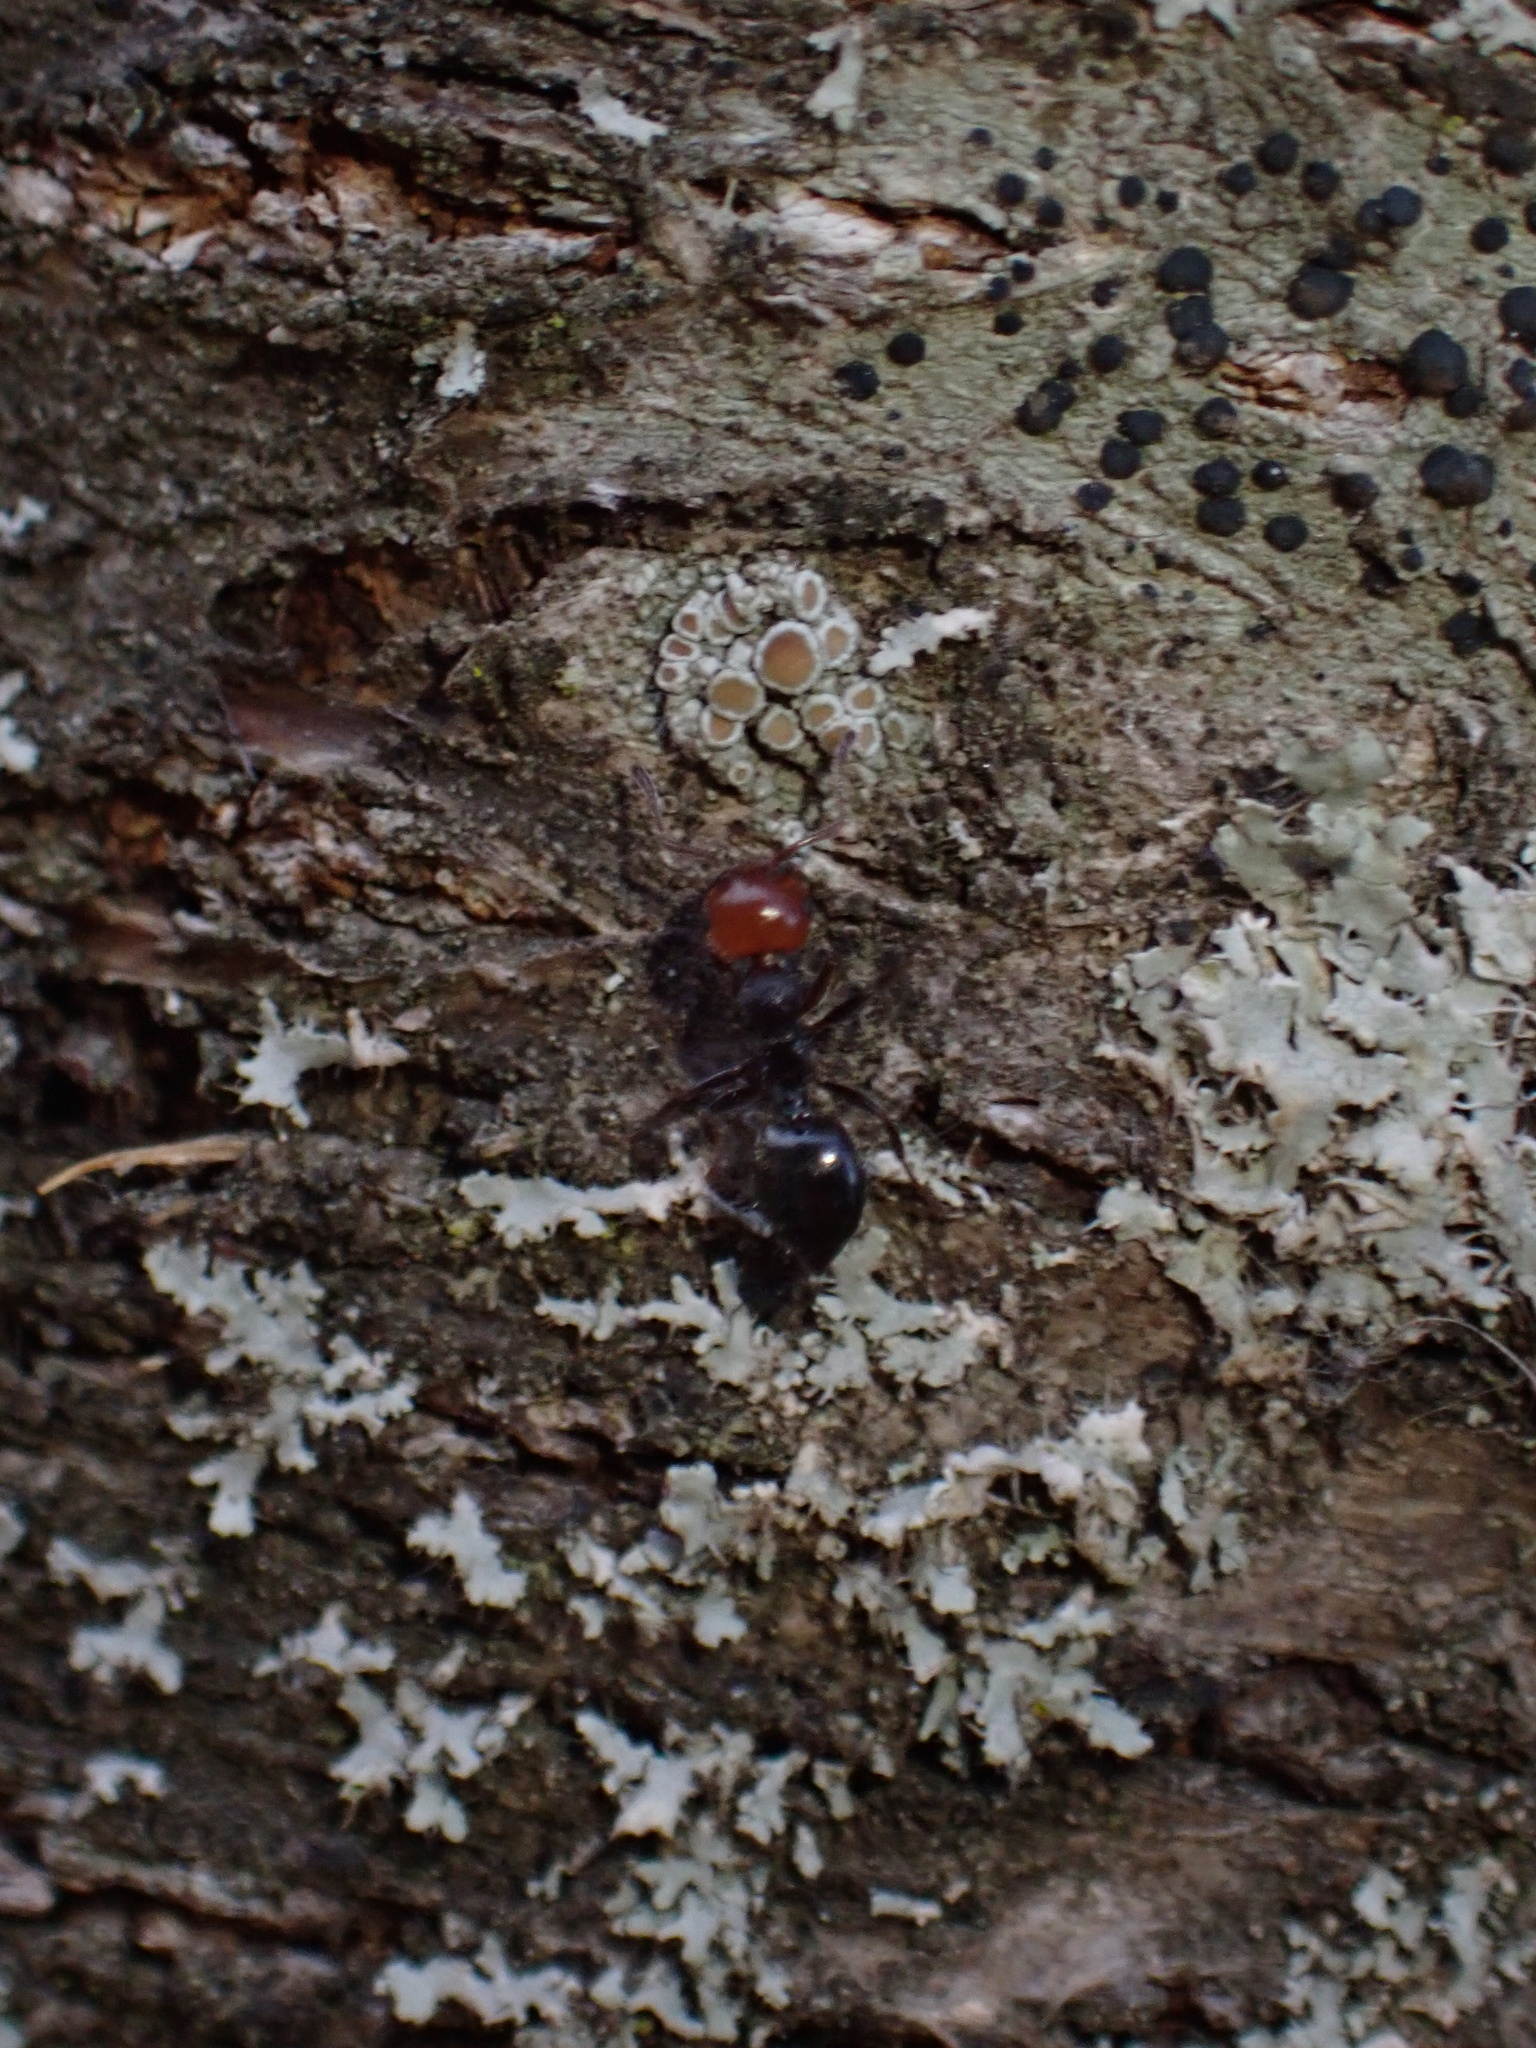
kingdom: Animalia
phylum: Arthropoda
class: Insecta
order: Hymenoptera
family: Formicidae
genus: Crematogaster
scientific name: Crematogaster scutellaris
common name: Fourmi du liège
